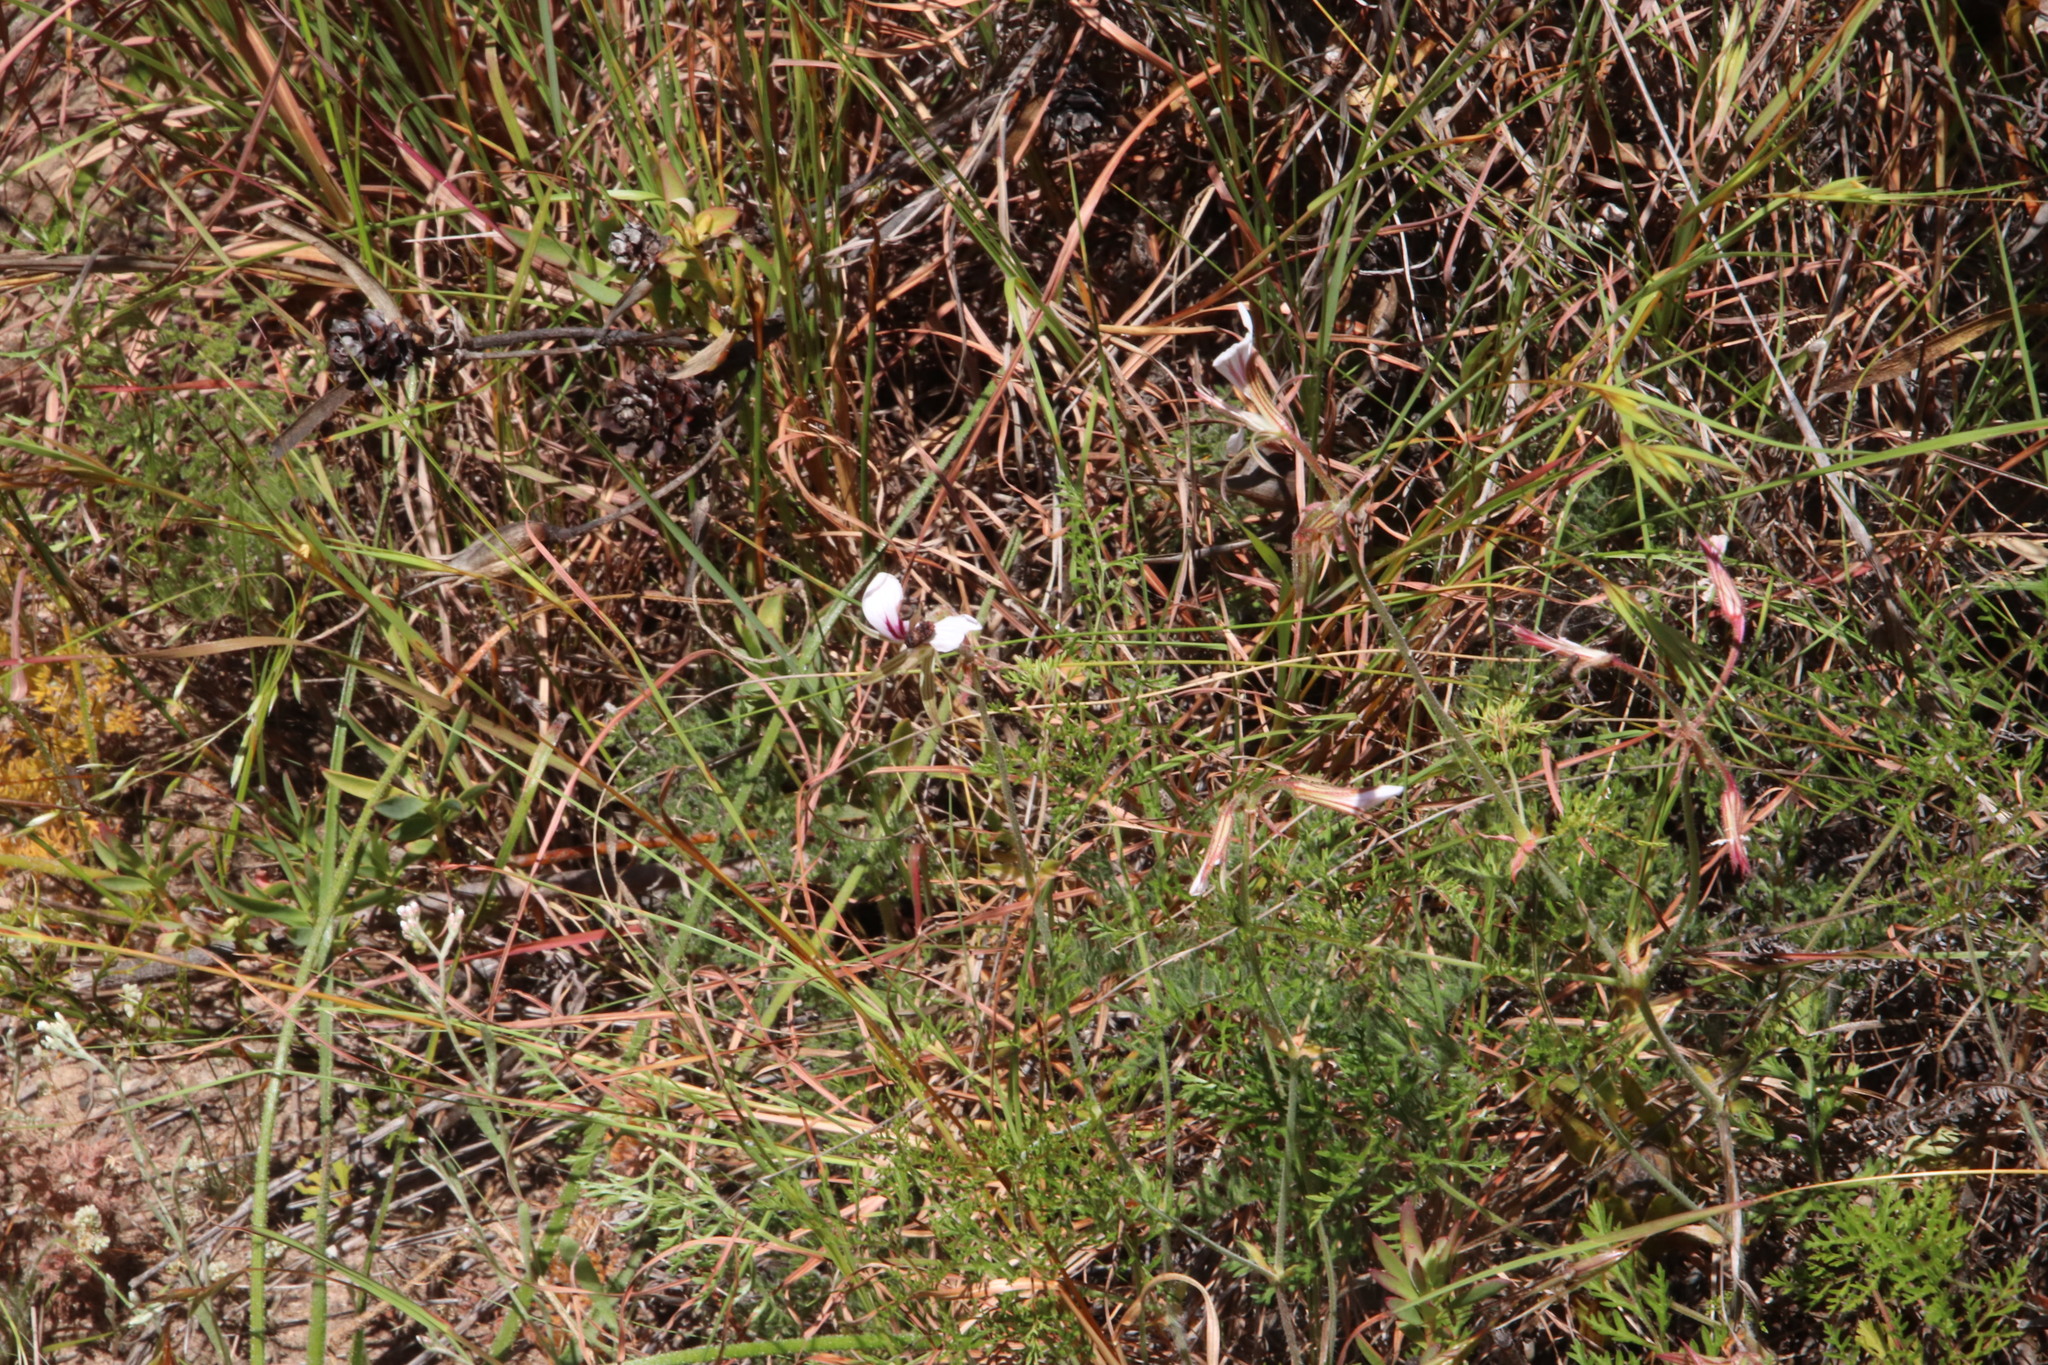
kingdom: Plantae
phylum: Tracheophyta
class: Magnoliopsida
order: Geraniales
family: Geraniaceae
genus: Pelargonium
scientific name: Pelargonium longicaule
